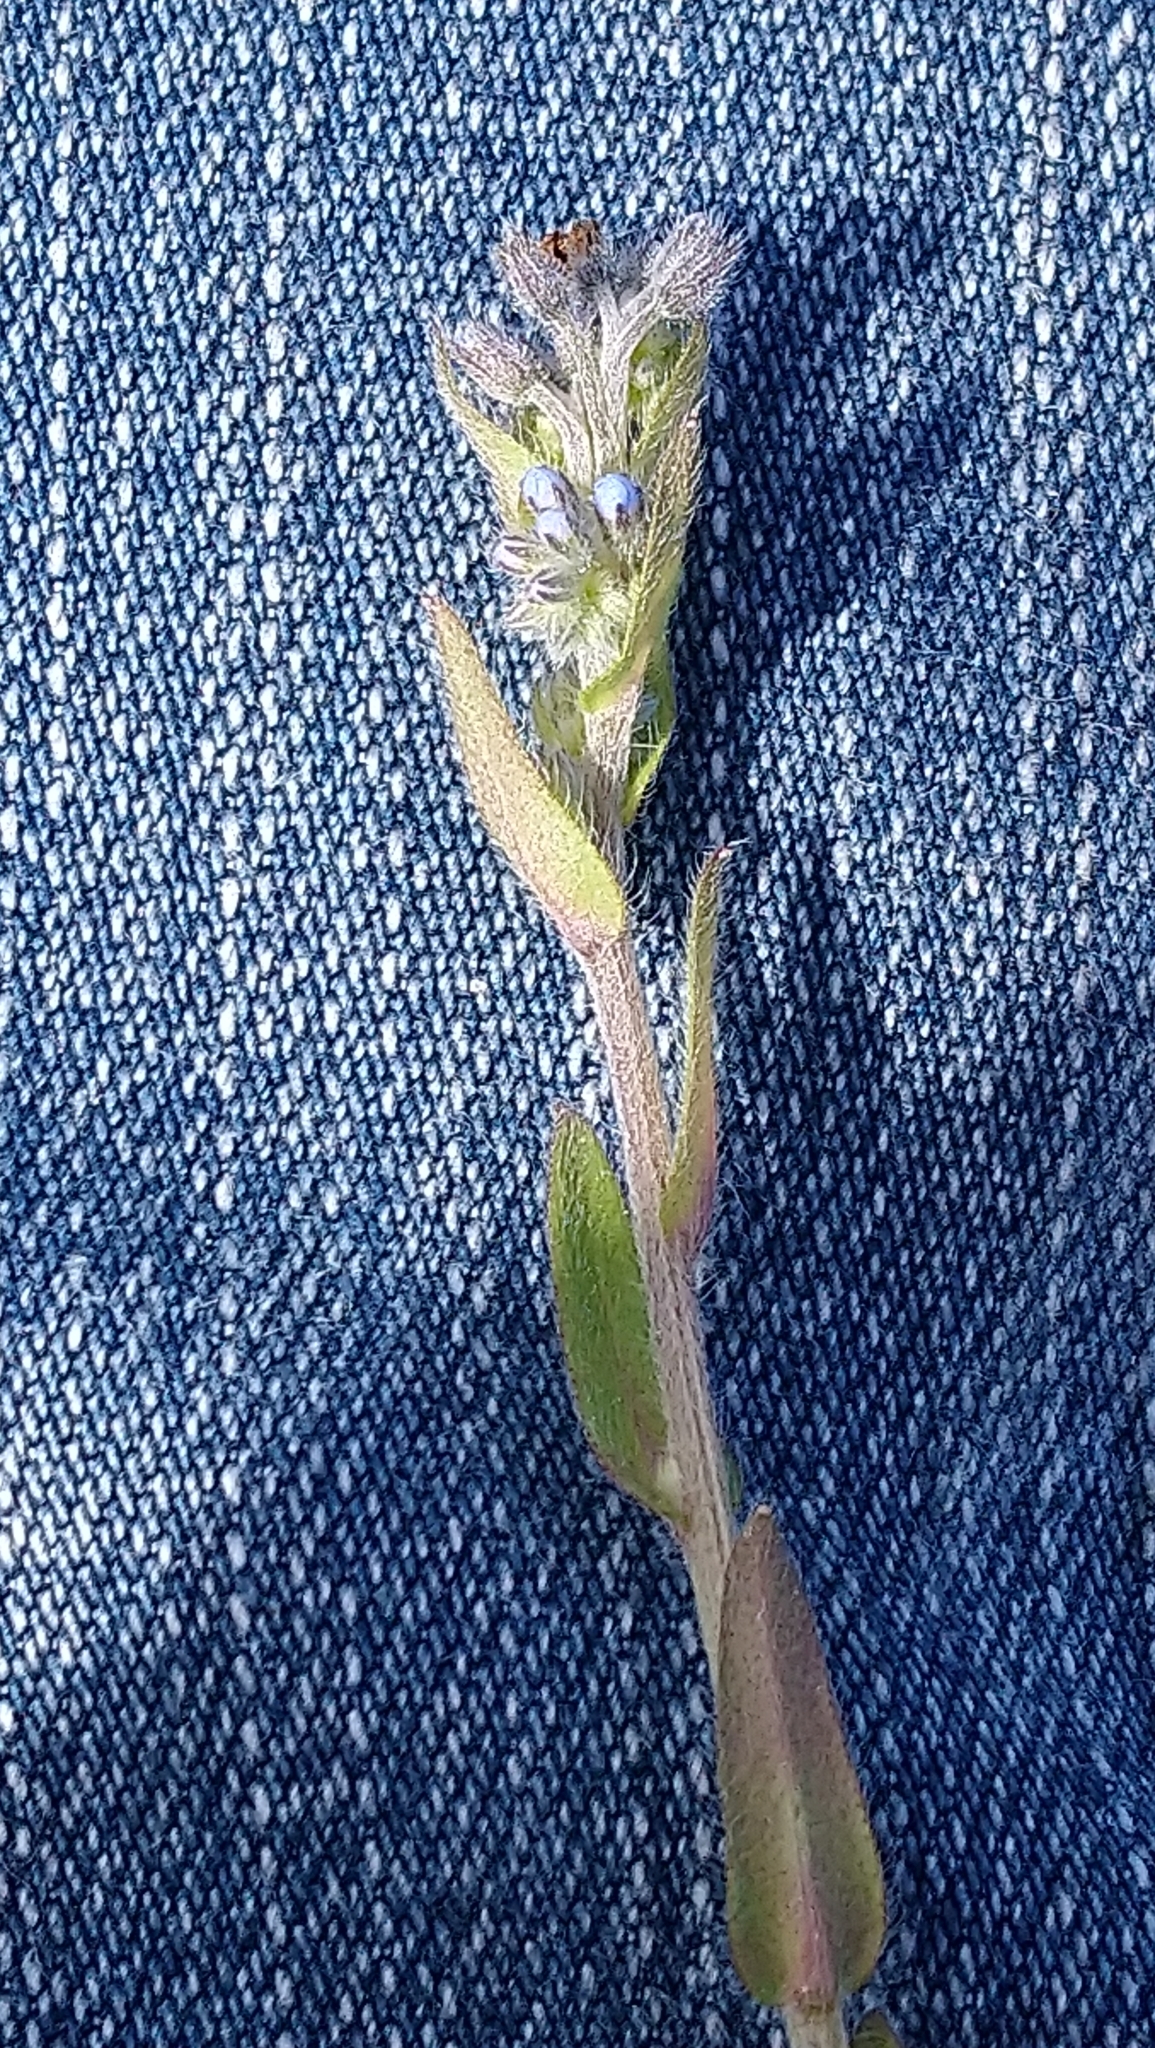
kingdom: Plantae
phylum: Tracheophyta
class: Magnoliopsida
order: Boraginales
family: Boraginaceae
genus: Myosotis
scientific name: Myosotis stricta
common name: Strict forget-me-not
